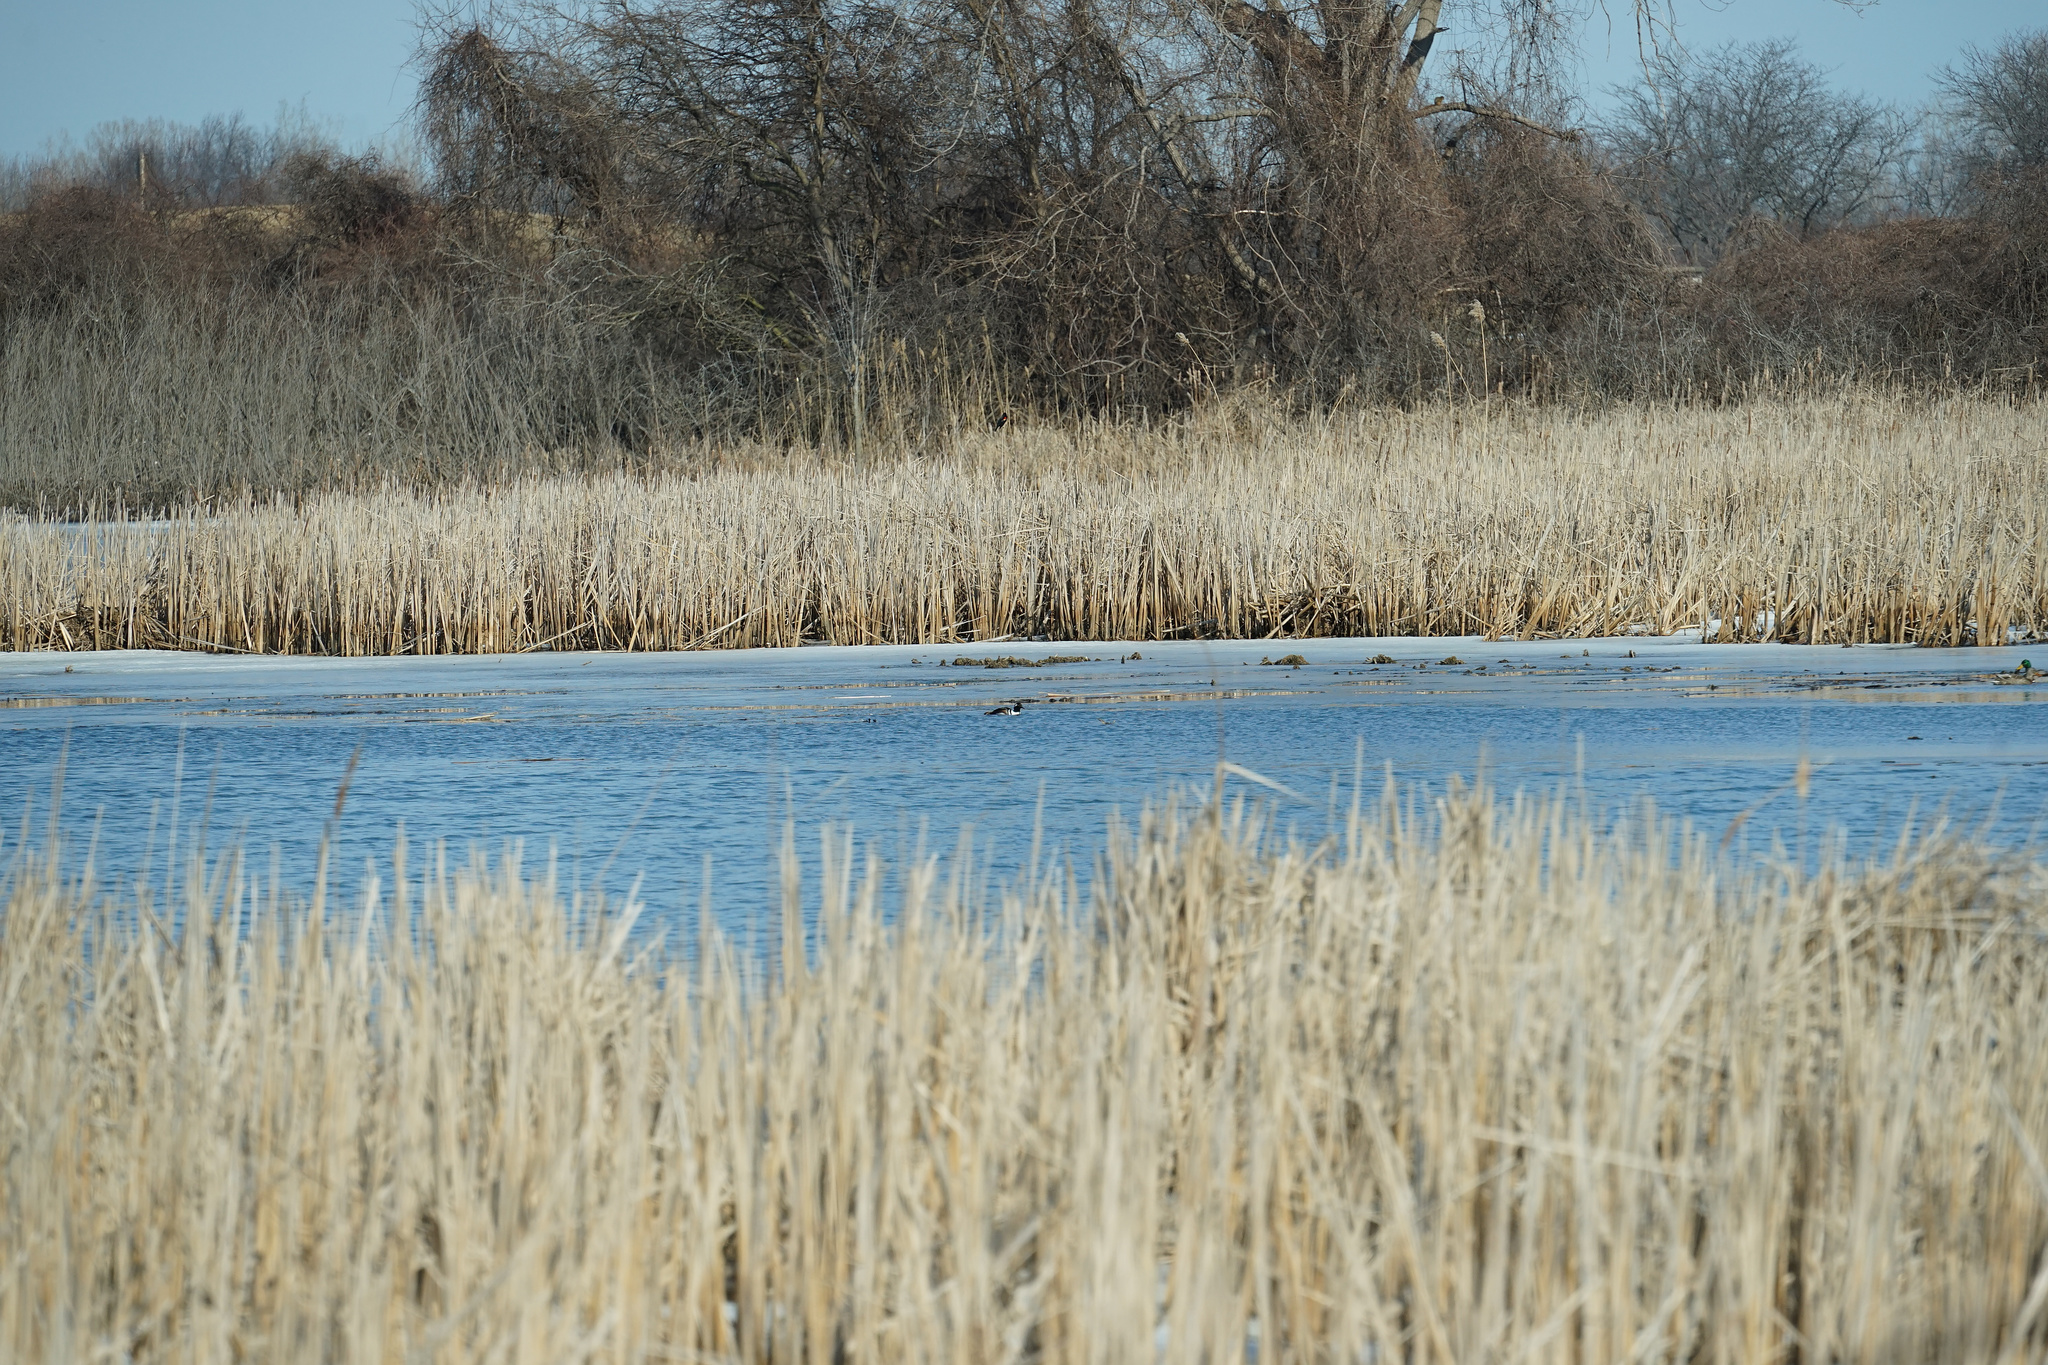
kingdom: Animalia
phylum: Chordata
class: Aves
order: Anseriformes
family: Anatidae
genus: Lophodytes
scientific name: Lophodytes cucullatus
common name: Hooded merganser
